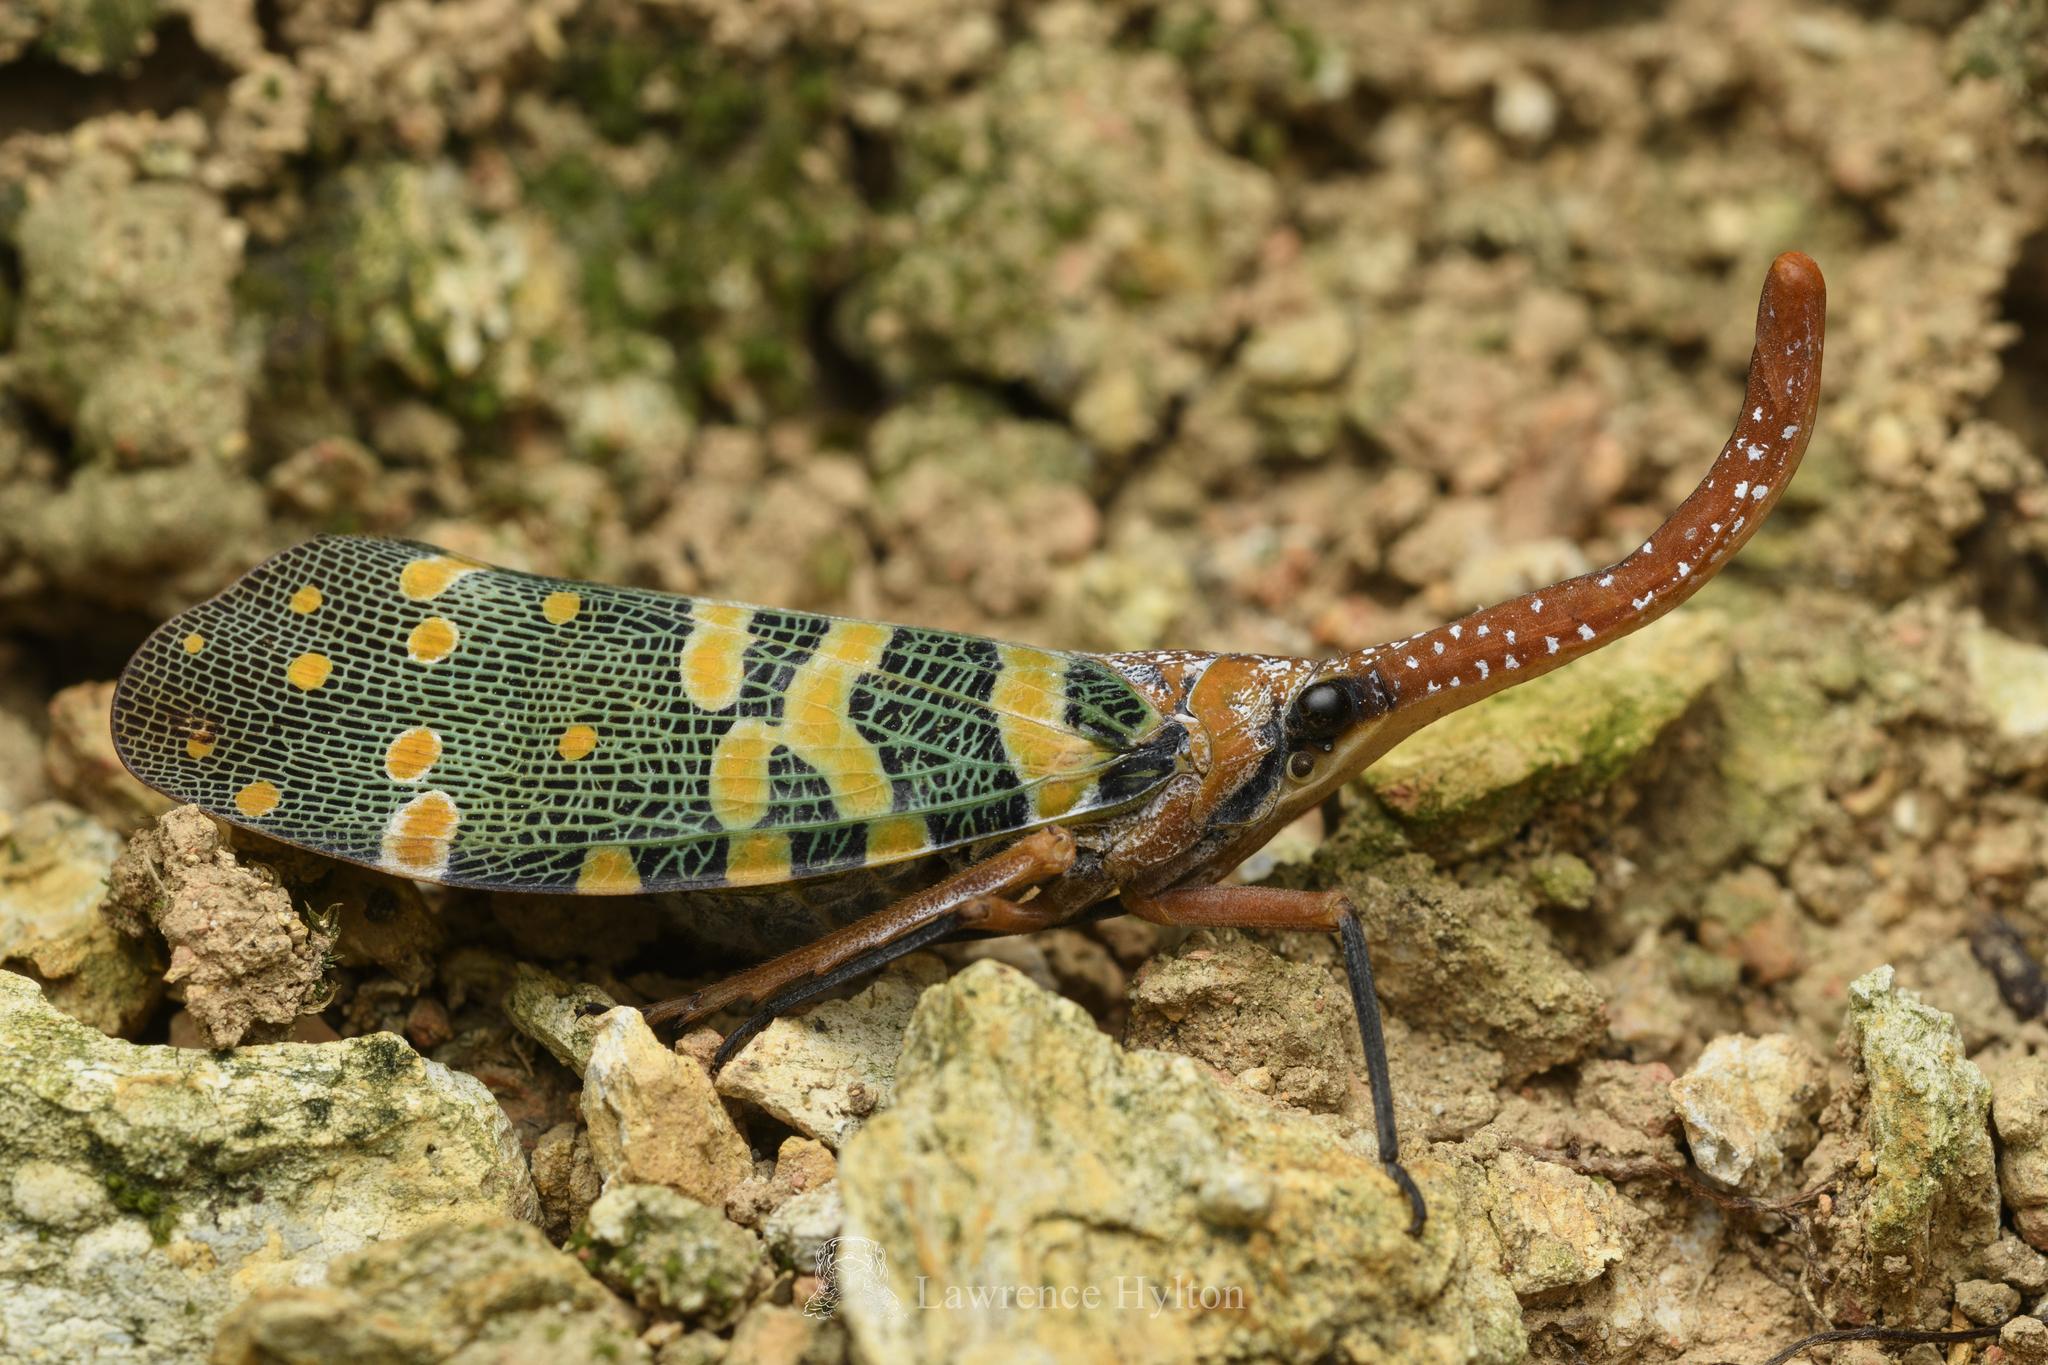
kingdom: Animalia
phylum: Arthropoda
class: Insecta
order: Hemiptera
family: Fulgoridae
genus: Pyrops
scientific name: Pyrops candelaria
